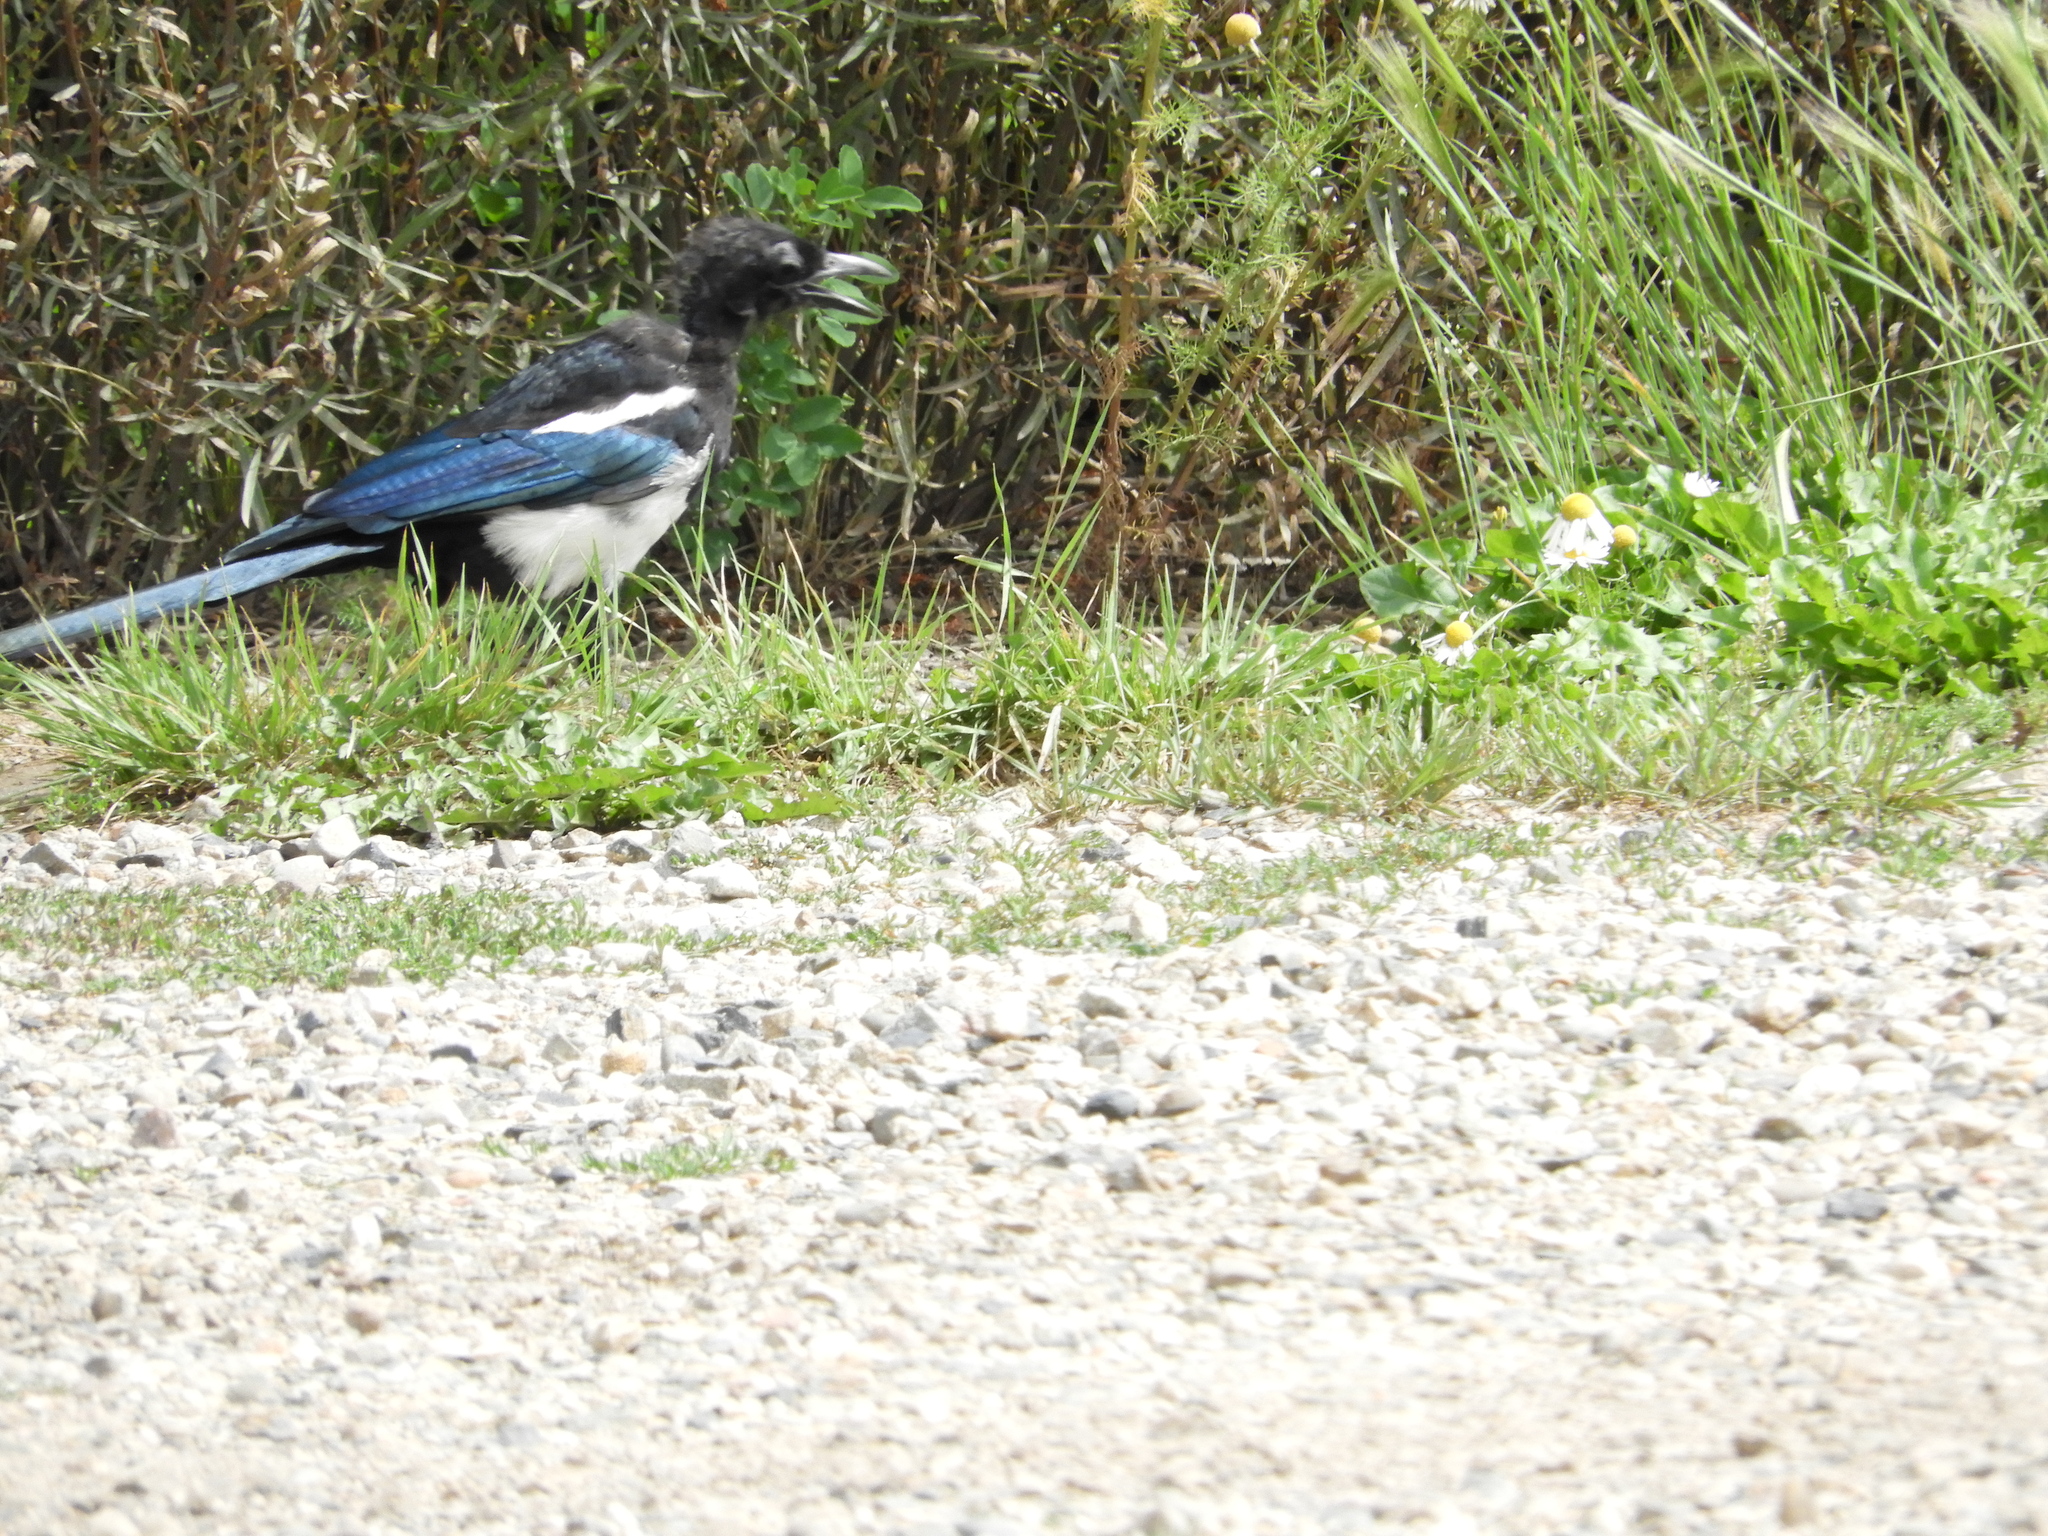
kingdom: Animalia
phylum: Chordata
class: Aves
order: Passeriformes
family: Corvidae
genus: Pica
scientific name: Pica hudsonia
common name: Black-billed magpie
